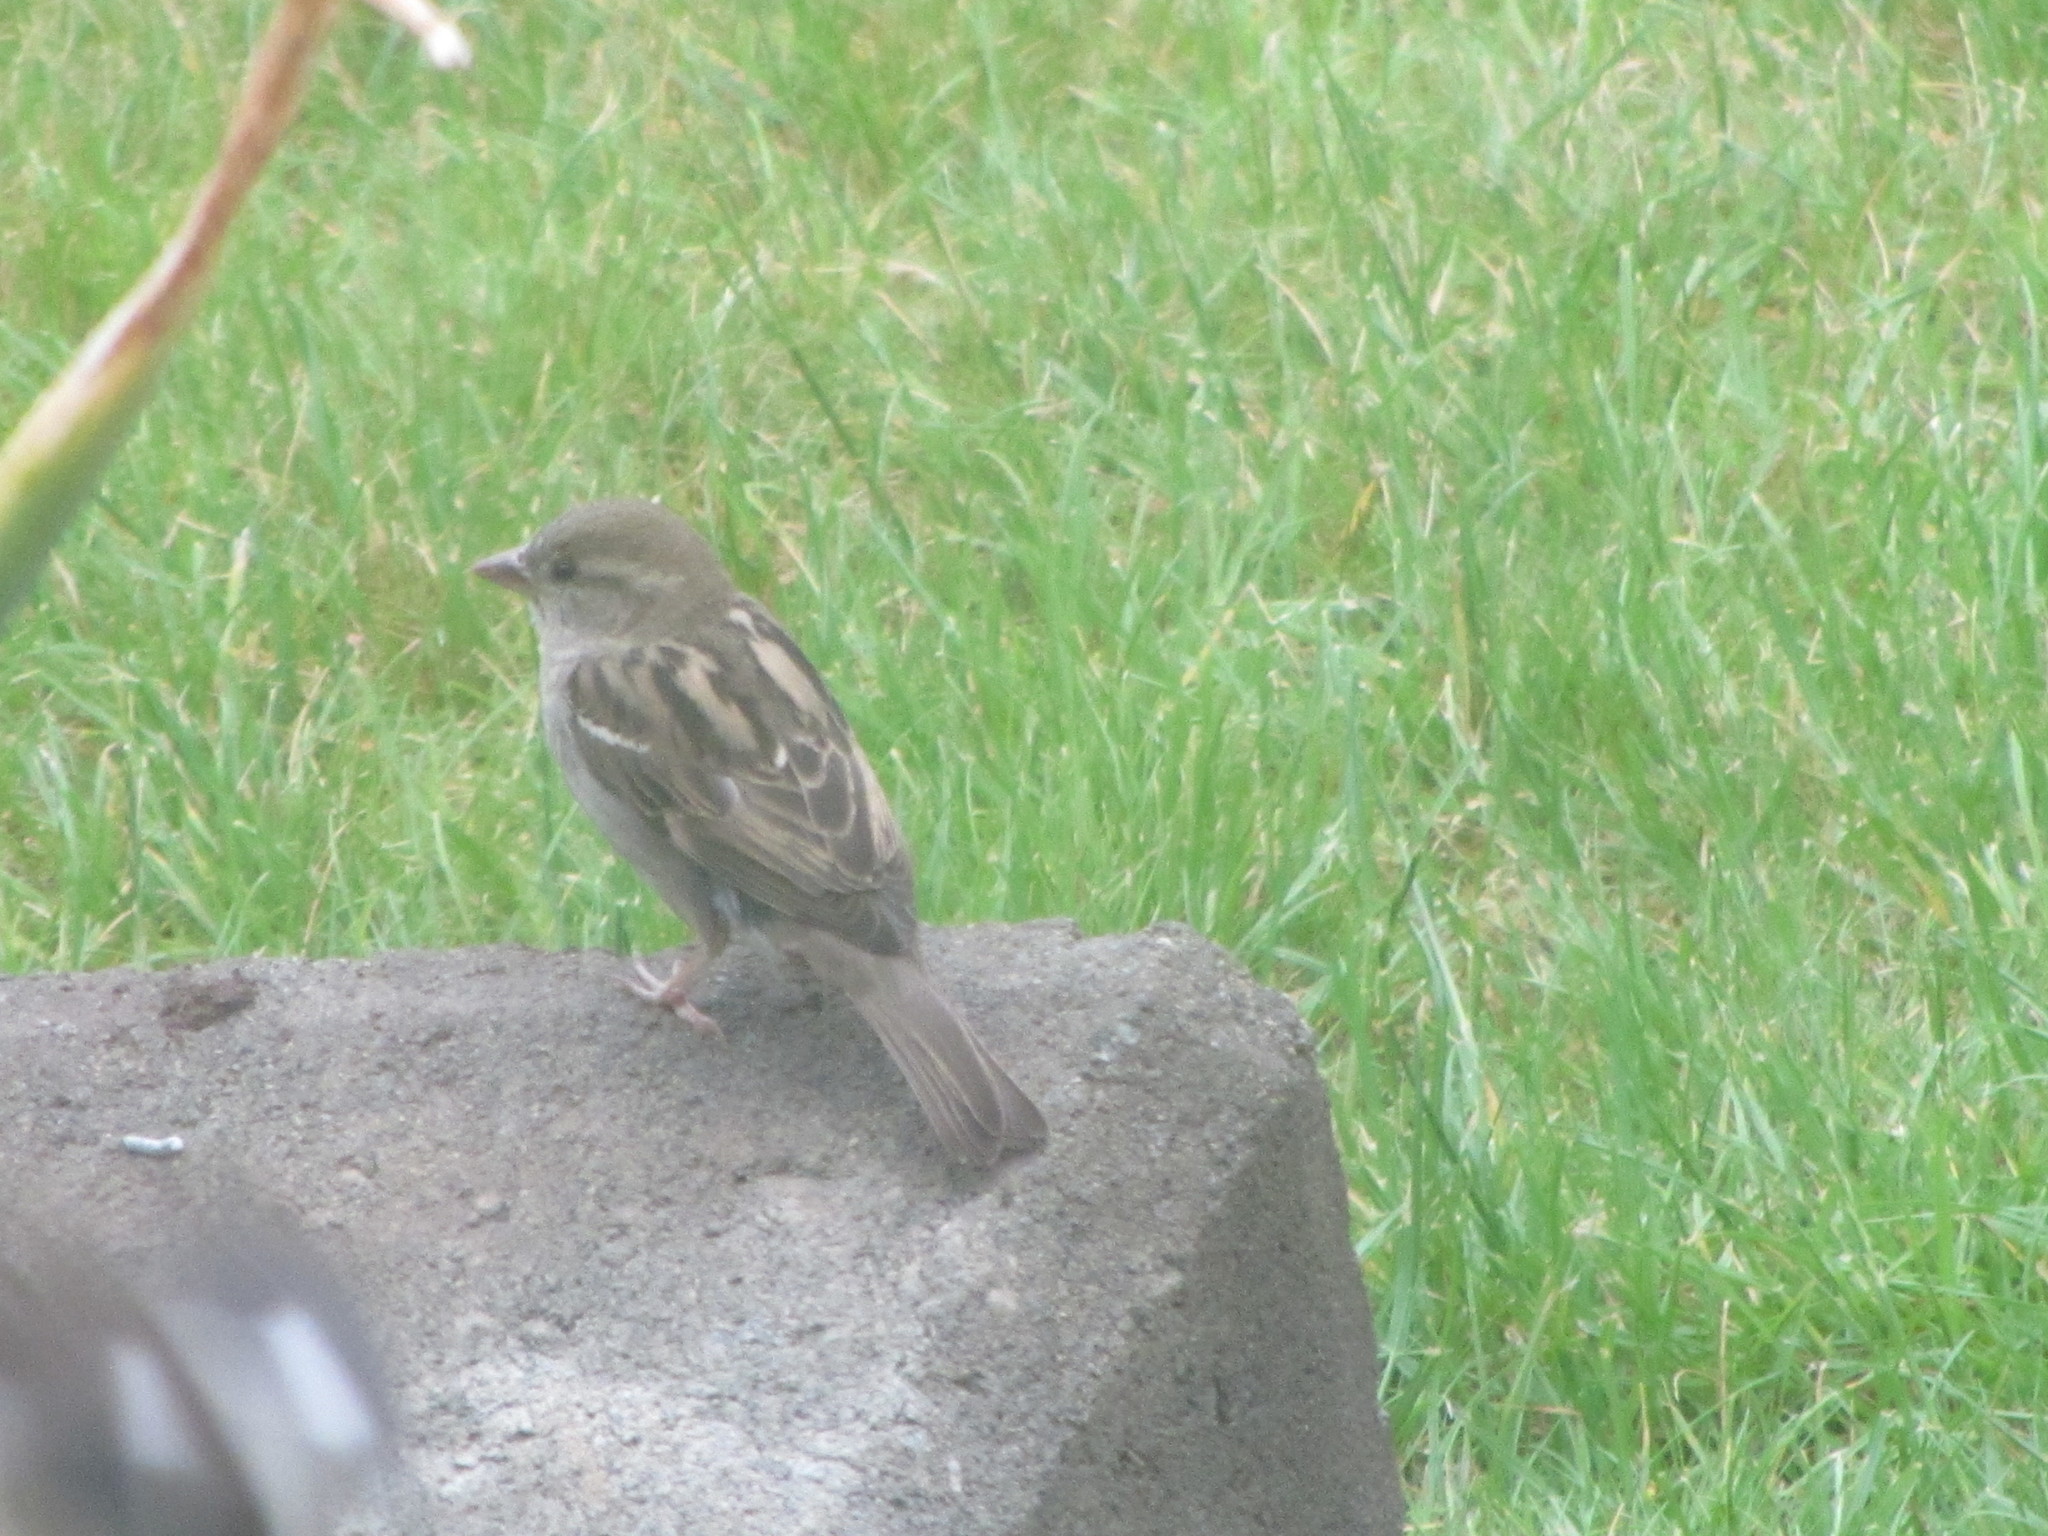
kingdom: Animalia
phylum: Chordata
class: Aves
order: Passeriformes
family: Passeridae
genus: Passer
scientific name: Passer domesticus
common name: House sparrow
